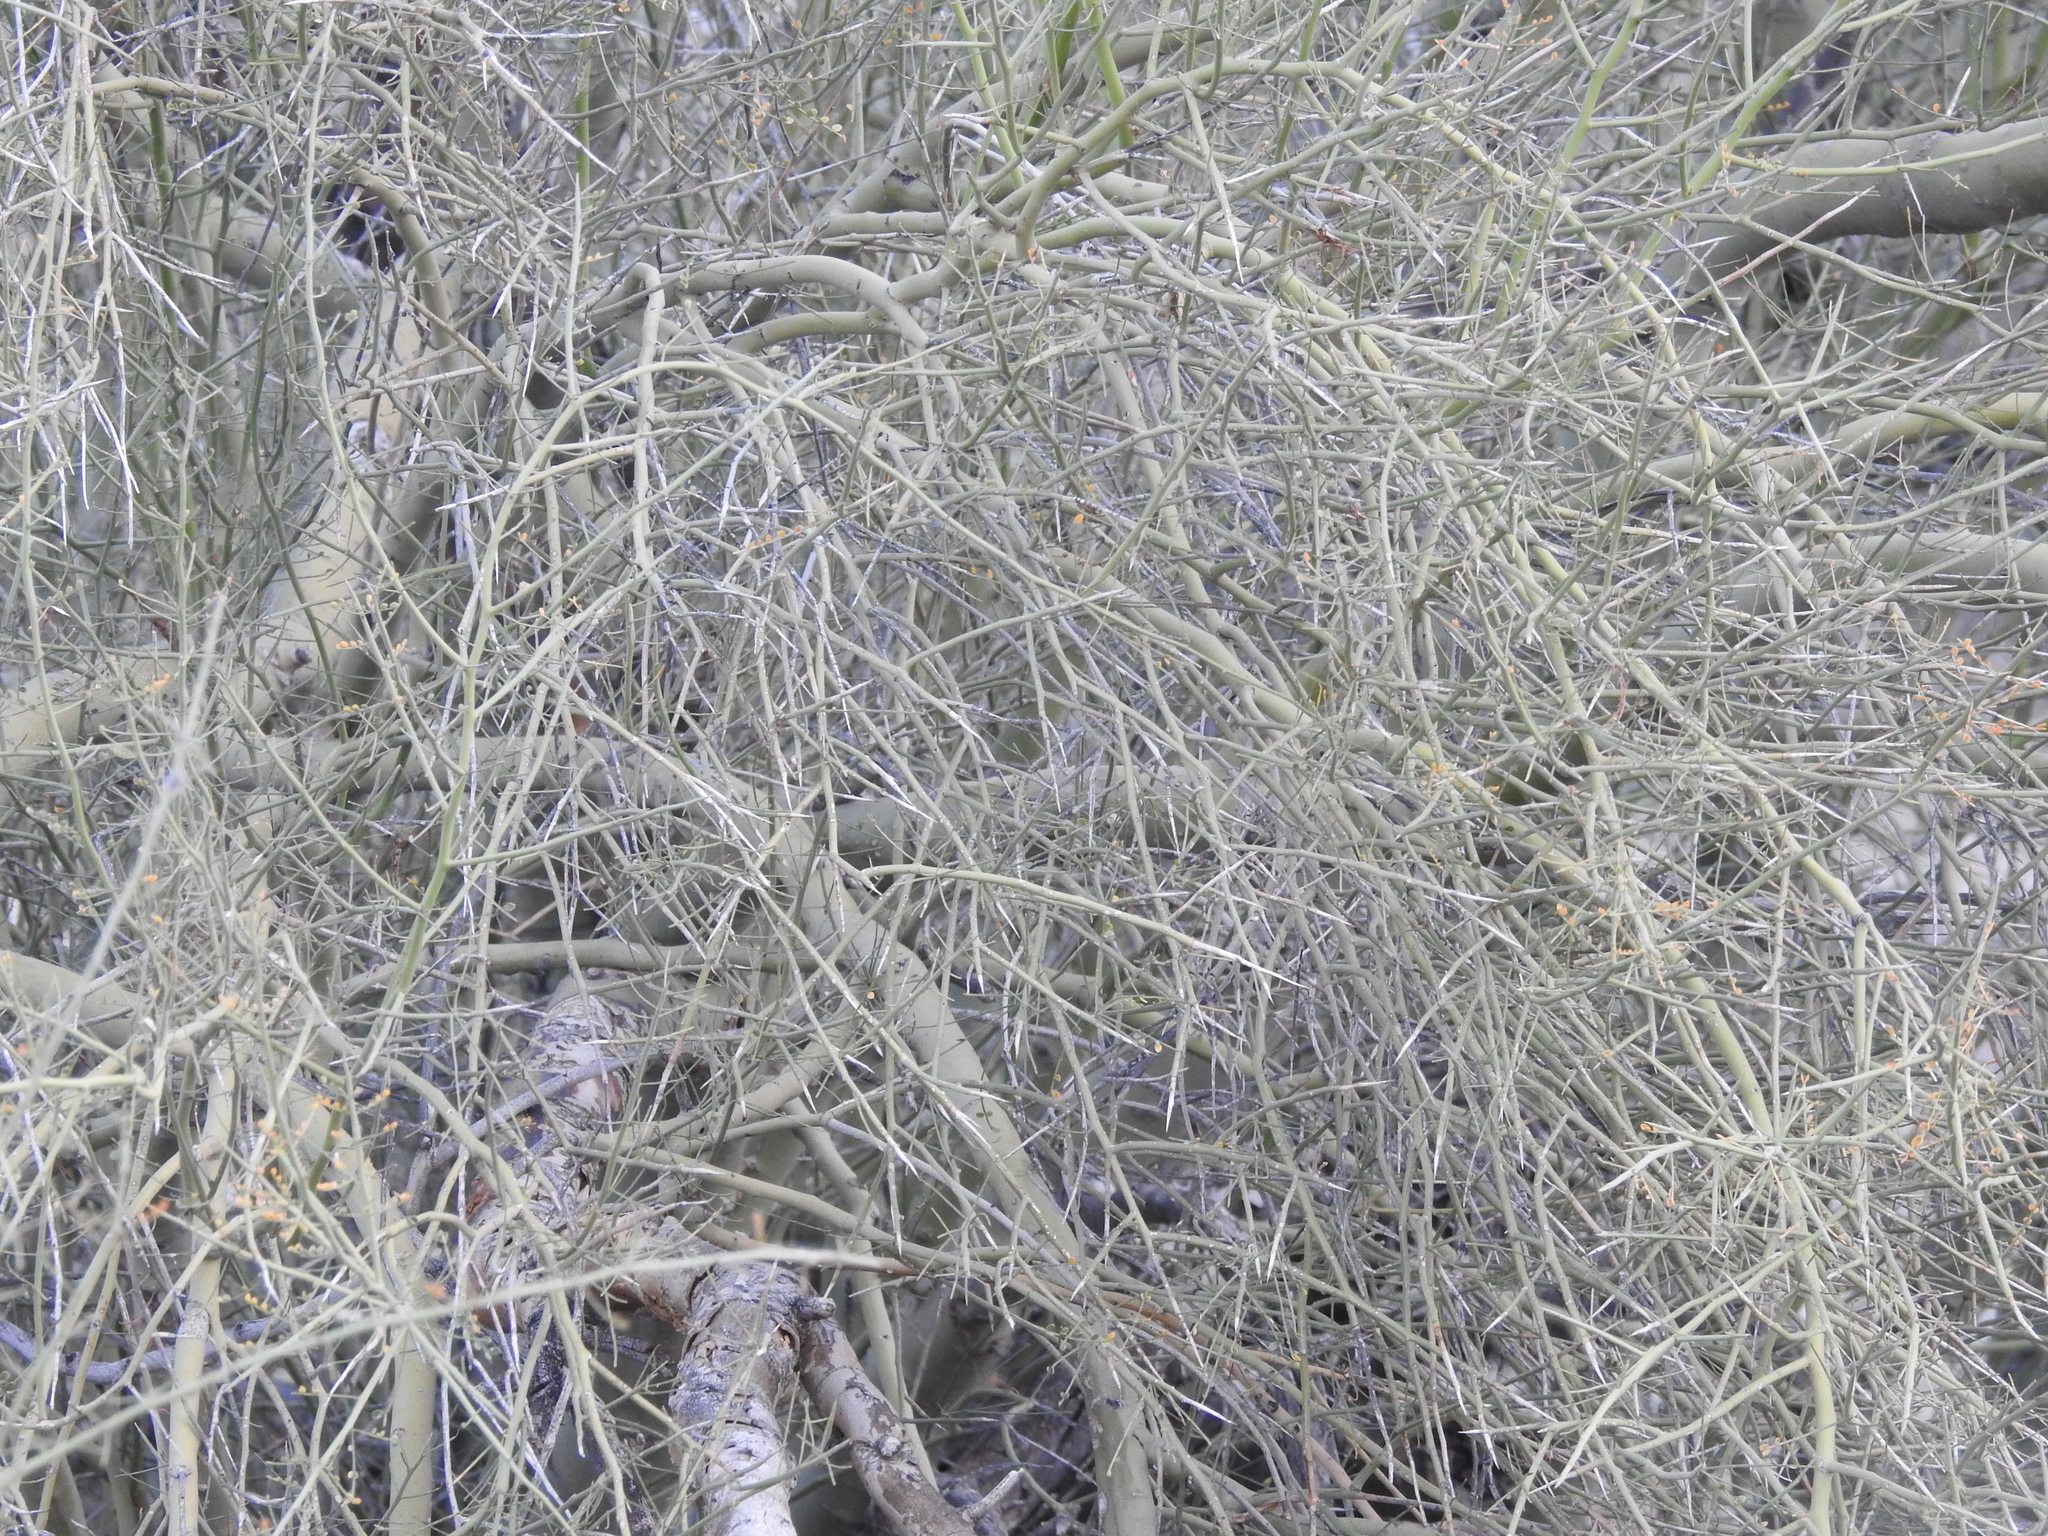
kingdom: Plantae
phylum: Tracheophyta
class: Magnoliopsida
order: Fabales
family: Fabaceae
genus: Parkinsonia
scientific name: Parkinsonia microphylla
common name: Yellow paloverde
